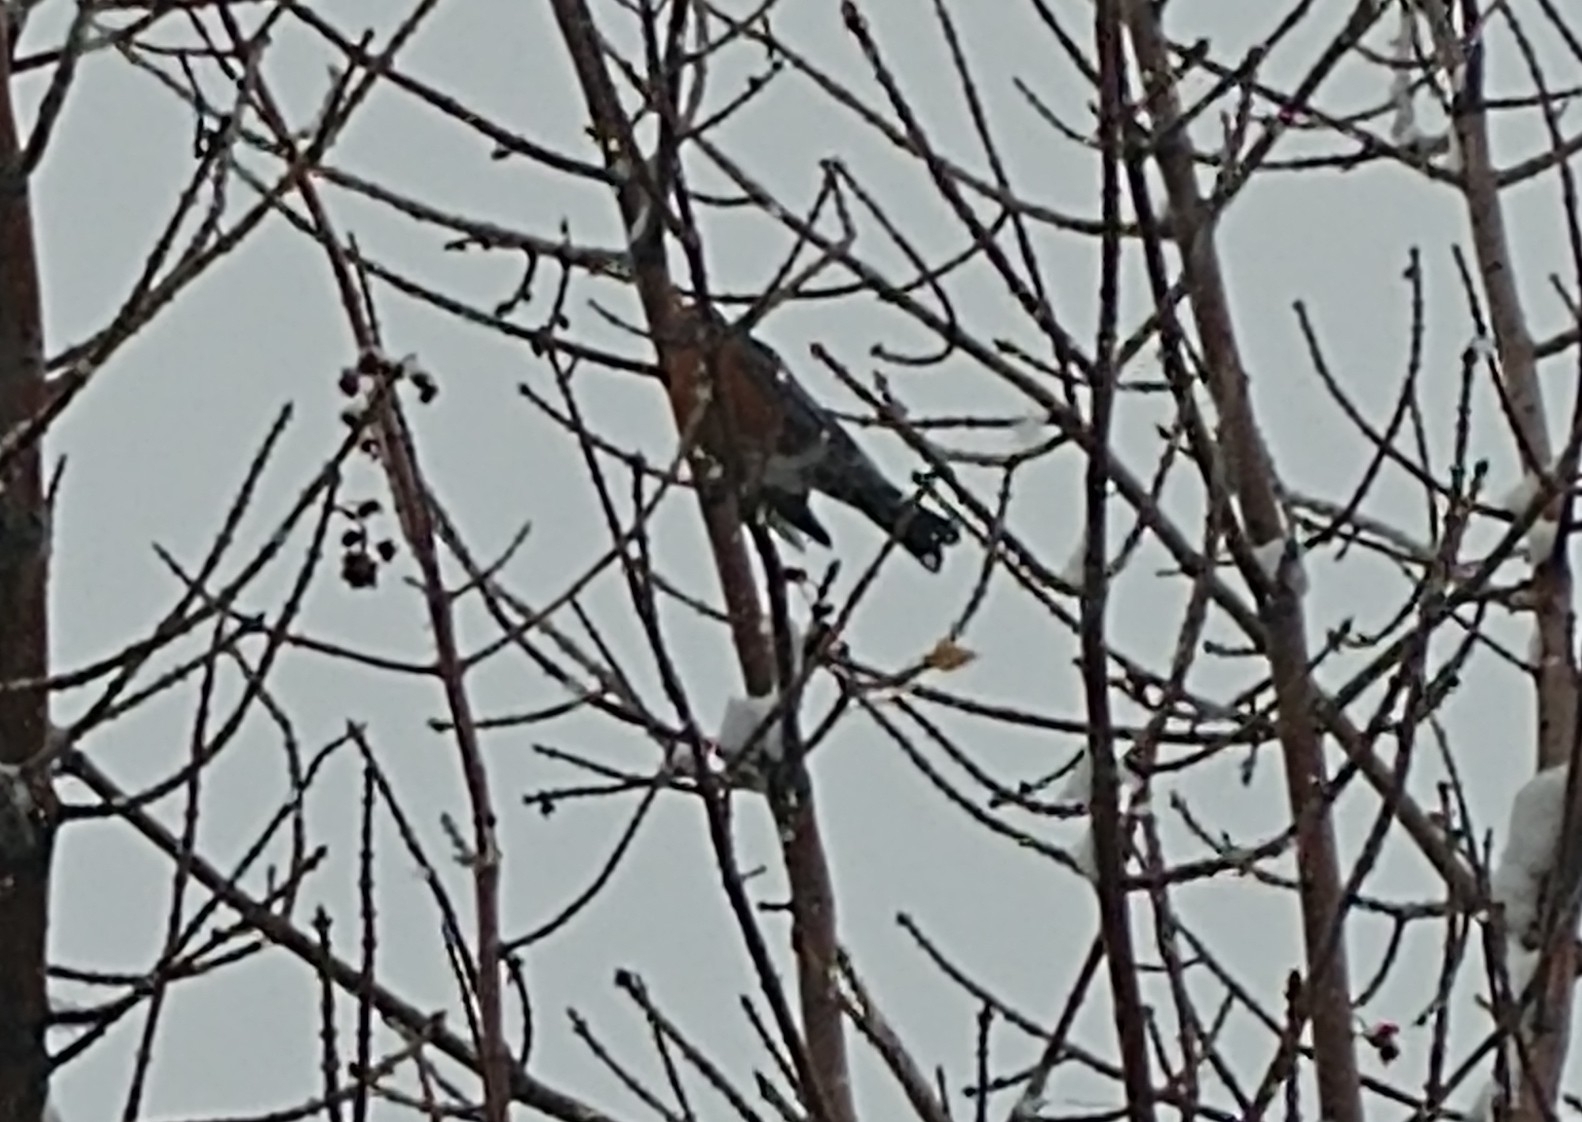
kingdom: Animalia
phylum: Chordata
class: Aves
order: Passeriformes
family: Turdidae
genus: Turdus
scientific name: Turdus migratorius
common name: American robin
